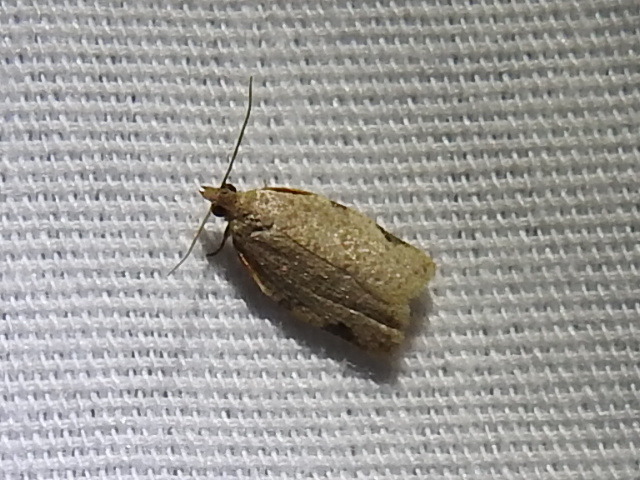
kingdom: Animalia
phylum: Arthropoda
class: Insecta
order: Lepidoptera
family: Tortricidae
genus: Clepsis
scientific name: Clepsis virescana
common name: Greenish apple moth
